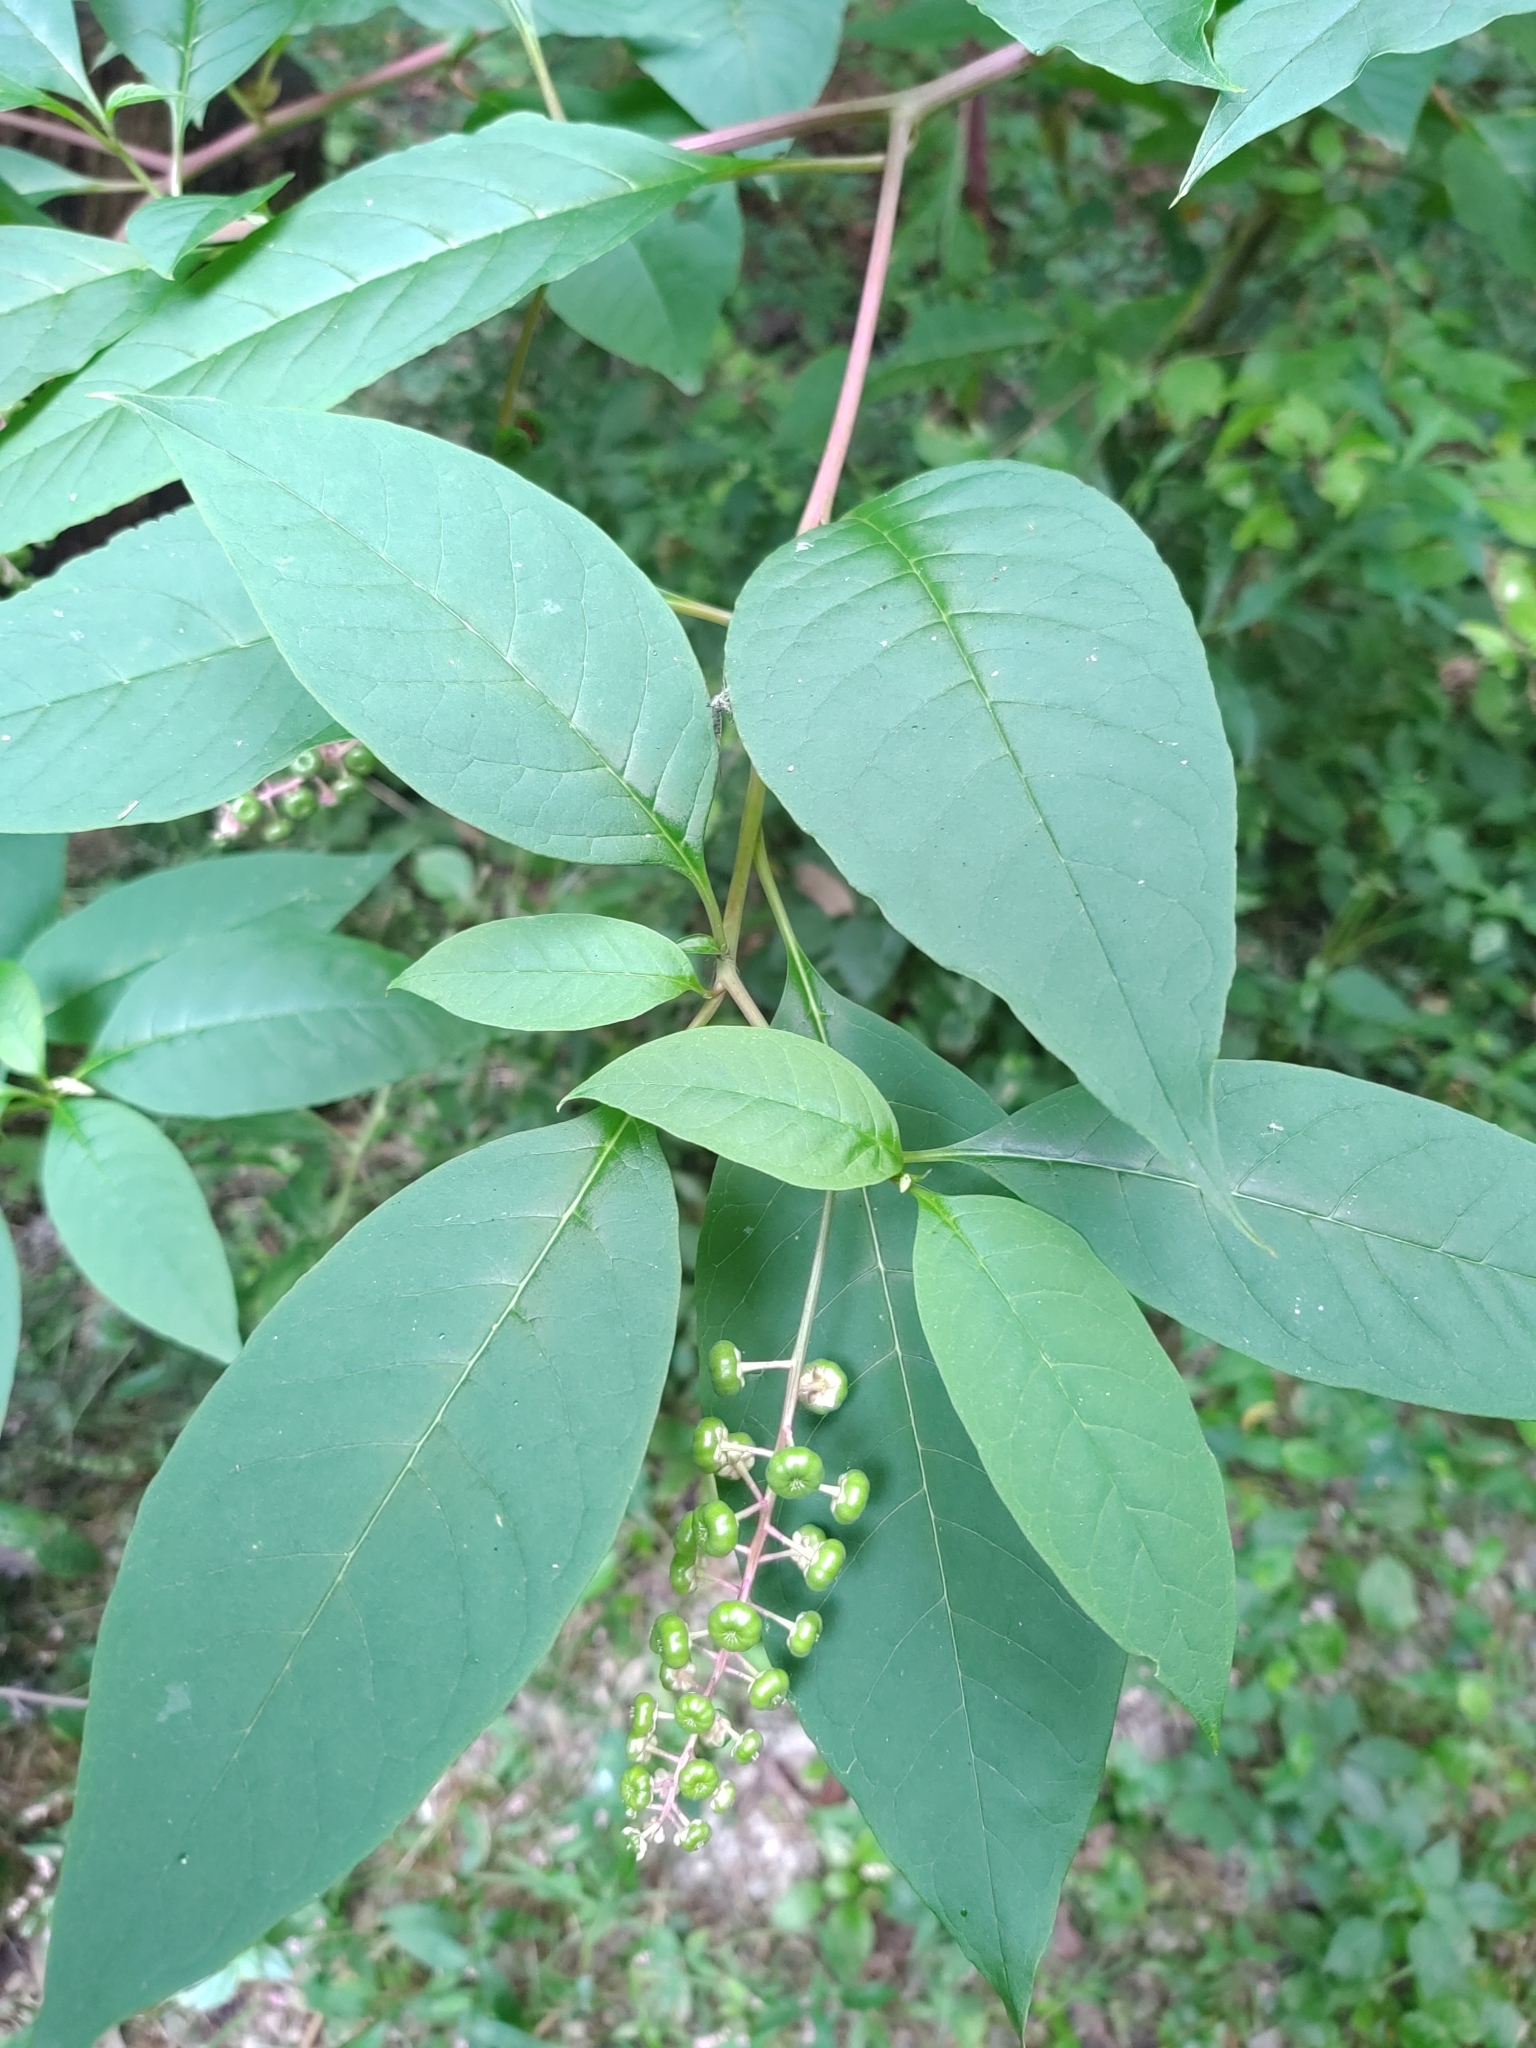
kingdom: Plantae
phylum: Tracheophyta
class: Magnoliopsida
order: Caryophyllales
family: Phytolaccaceae
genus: Phytolacca
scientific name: Phytolacca americana
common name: American pokeweed
